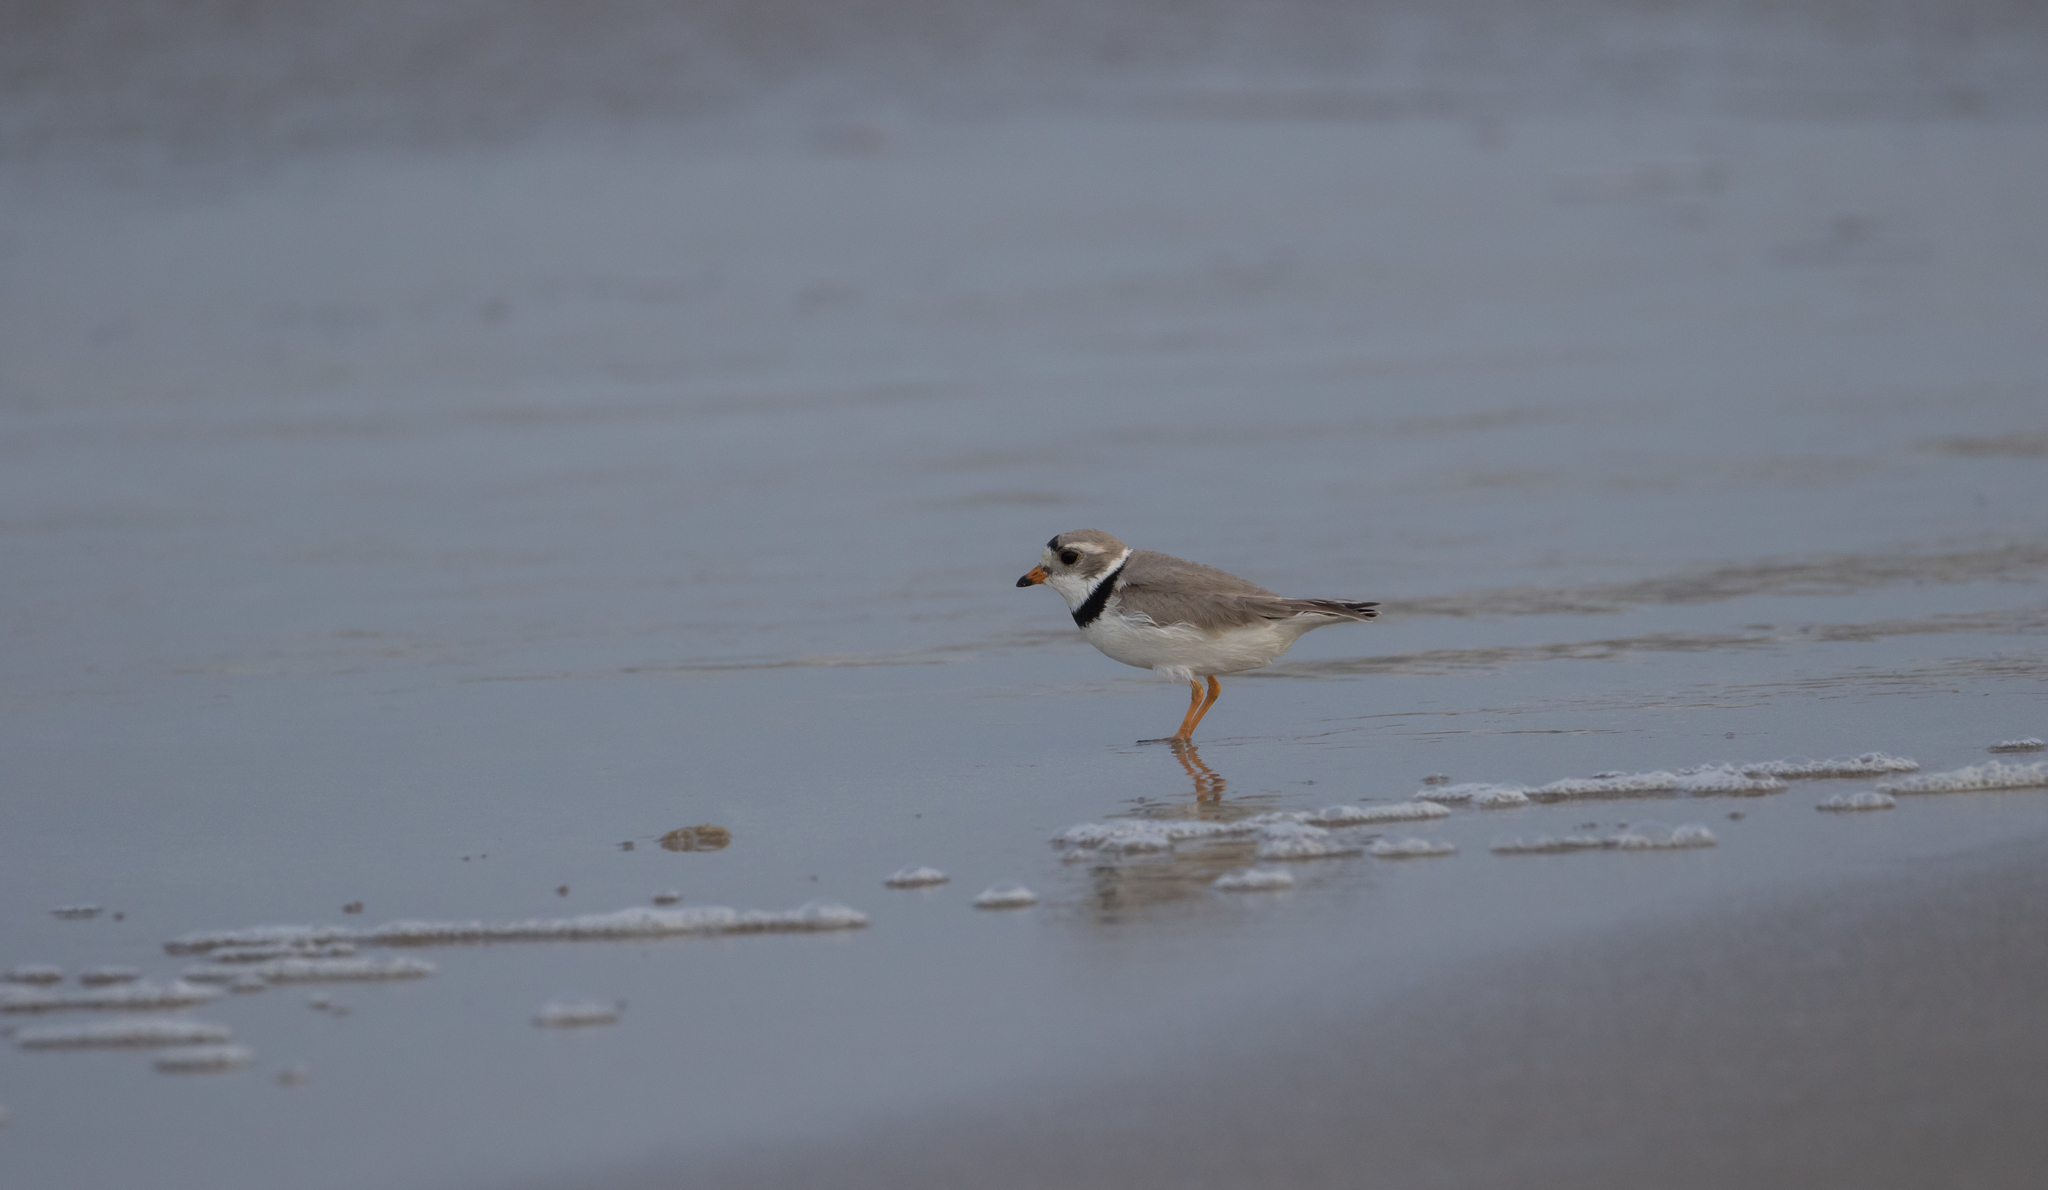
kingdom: Animalia
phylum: Chordata
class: Aves
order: Charadriiformes
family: Charadriidae
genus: Charadrius
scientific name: Charadrius melodus
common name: Piping plover
